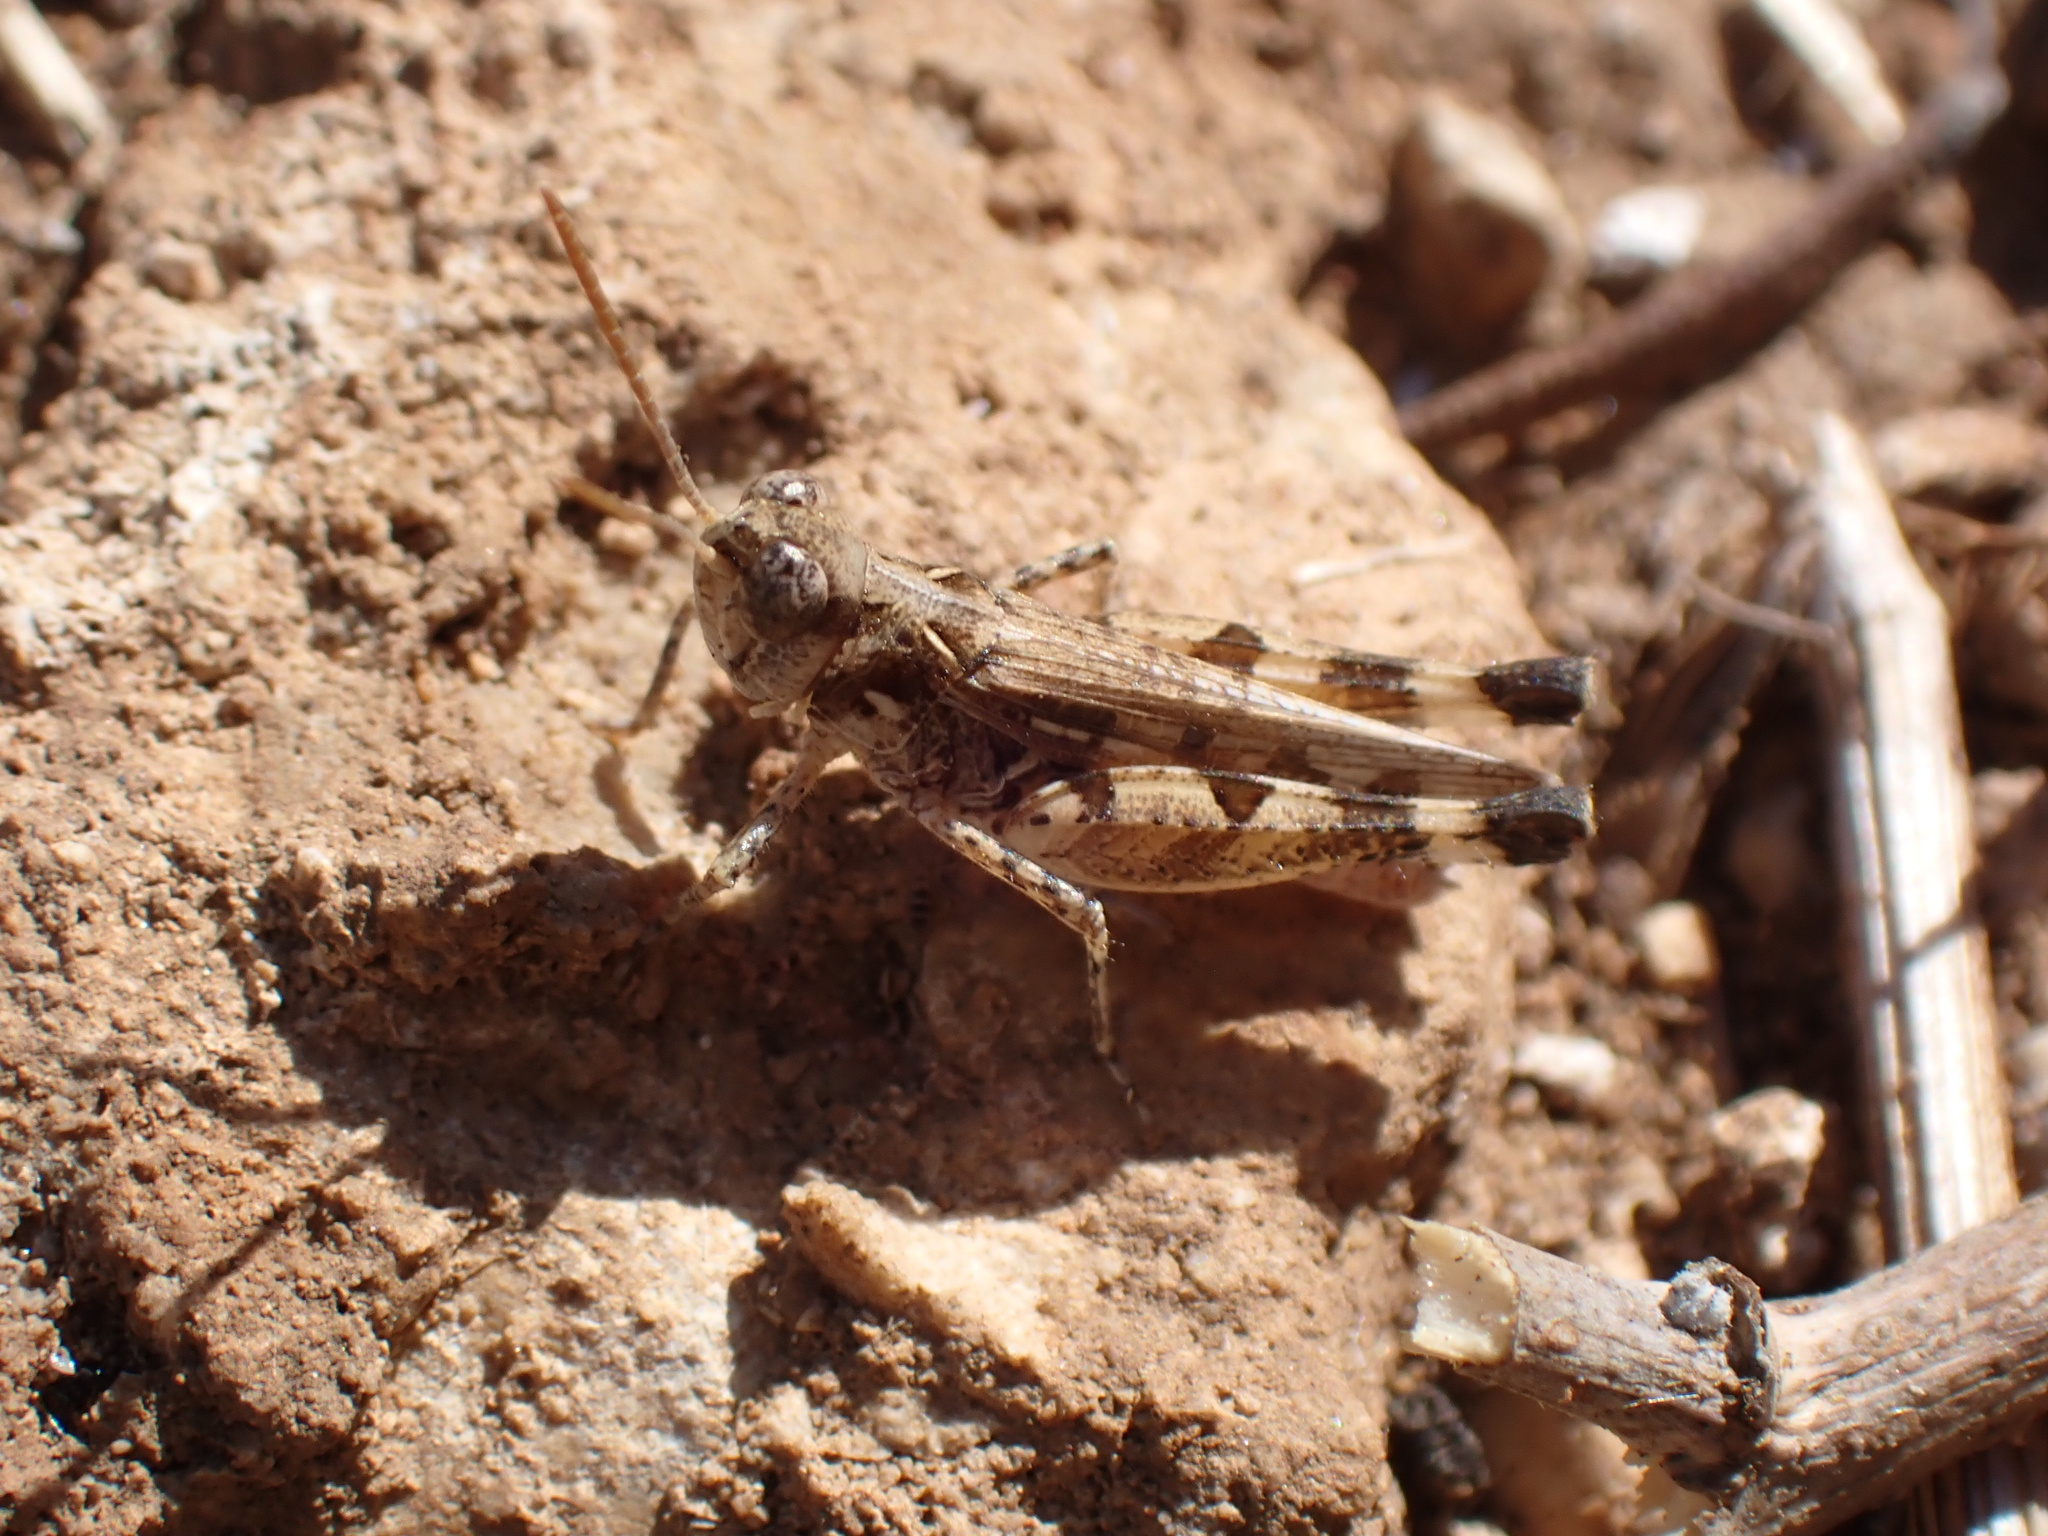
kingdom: Animalia
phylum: Arthropoda
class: Insecta
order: Orthoptera
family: Acrididae
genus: Dociostaurus
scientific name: Dociostaurus genei
